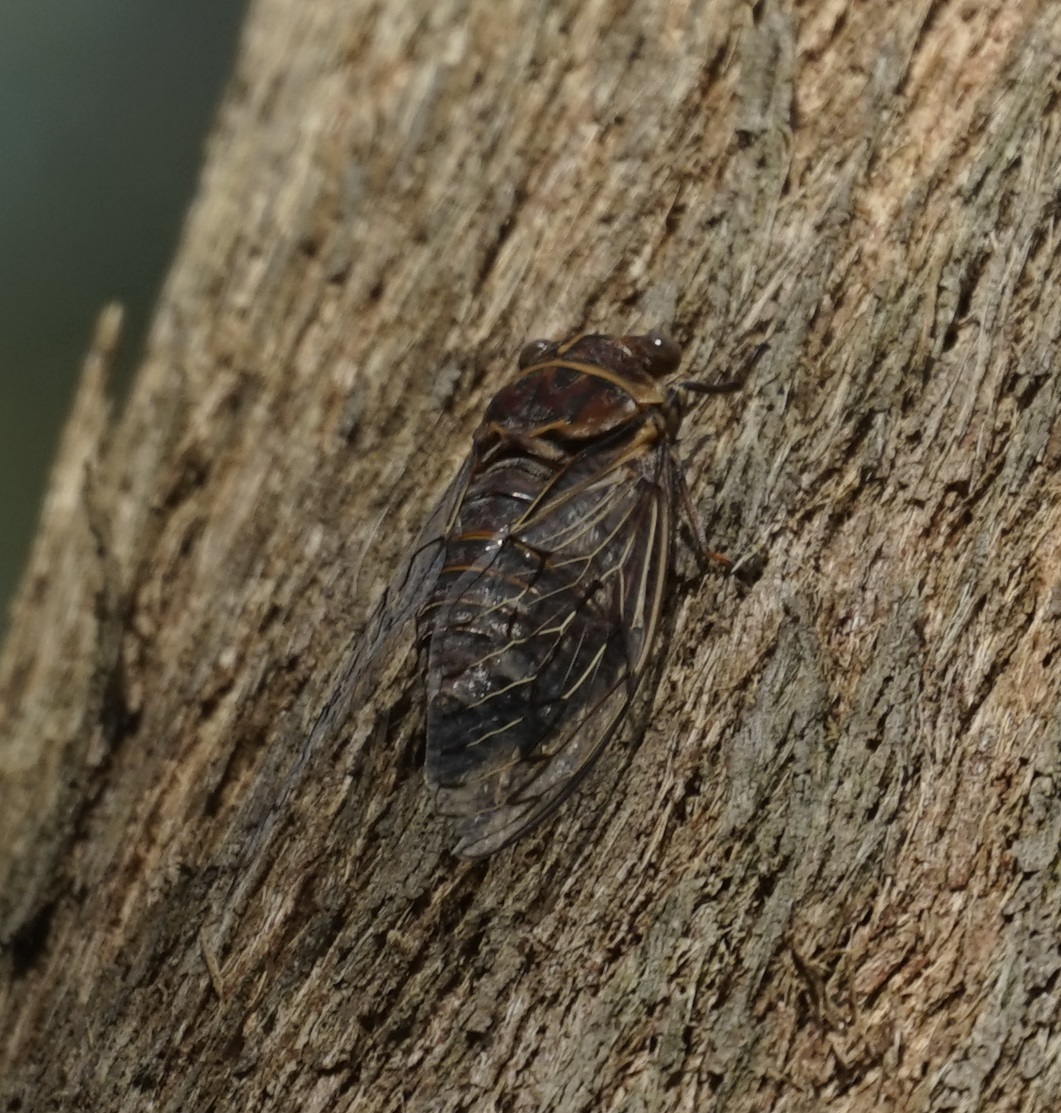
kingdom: Animalia
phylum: Arthropoda
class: Insecta
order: Hemiptera
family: Cicadidae
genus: Henicopsaltria
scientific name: Henicopsaltria eydouxii
